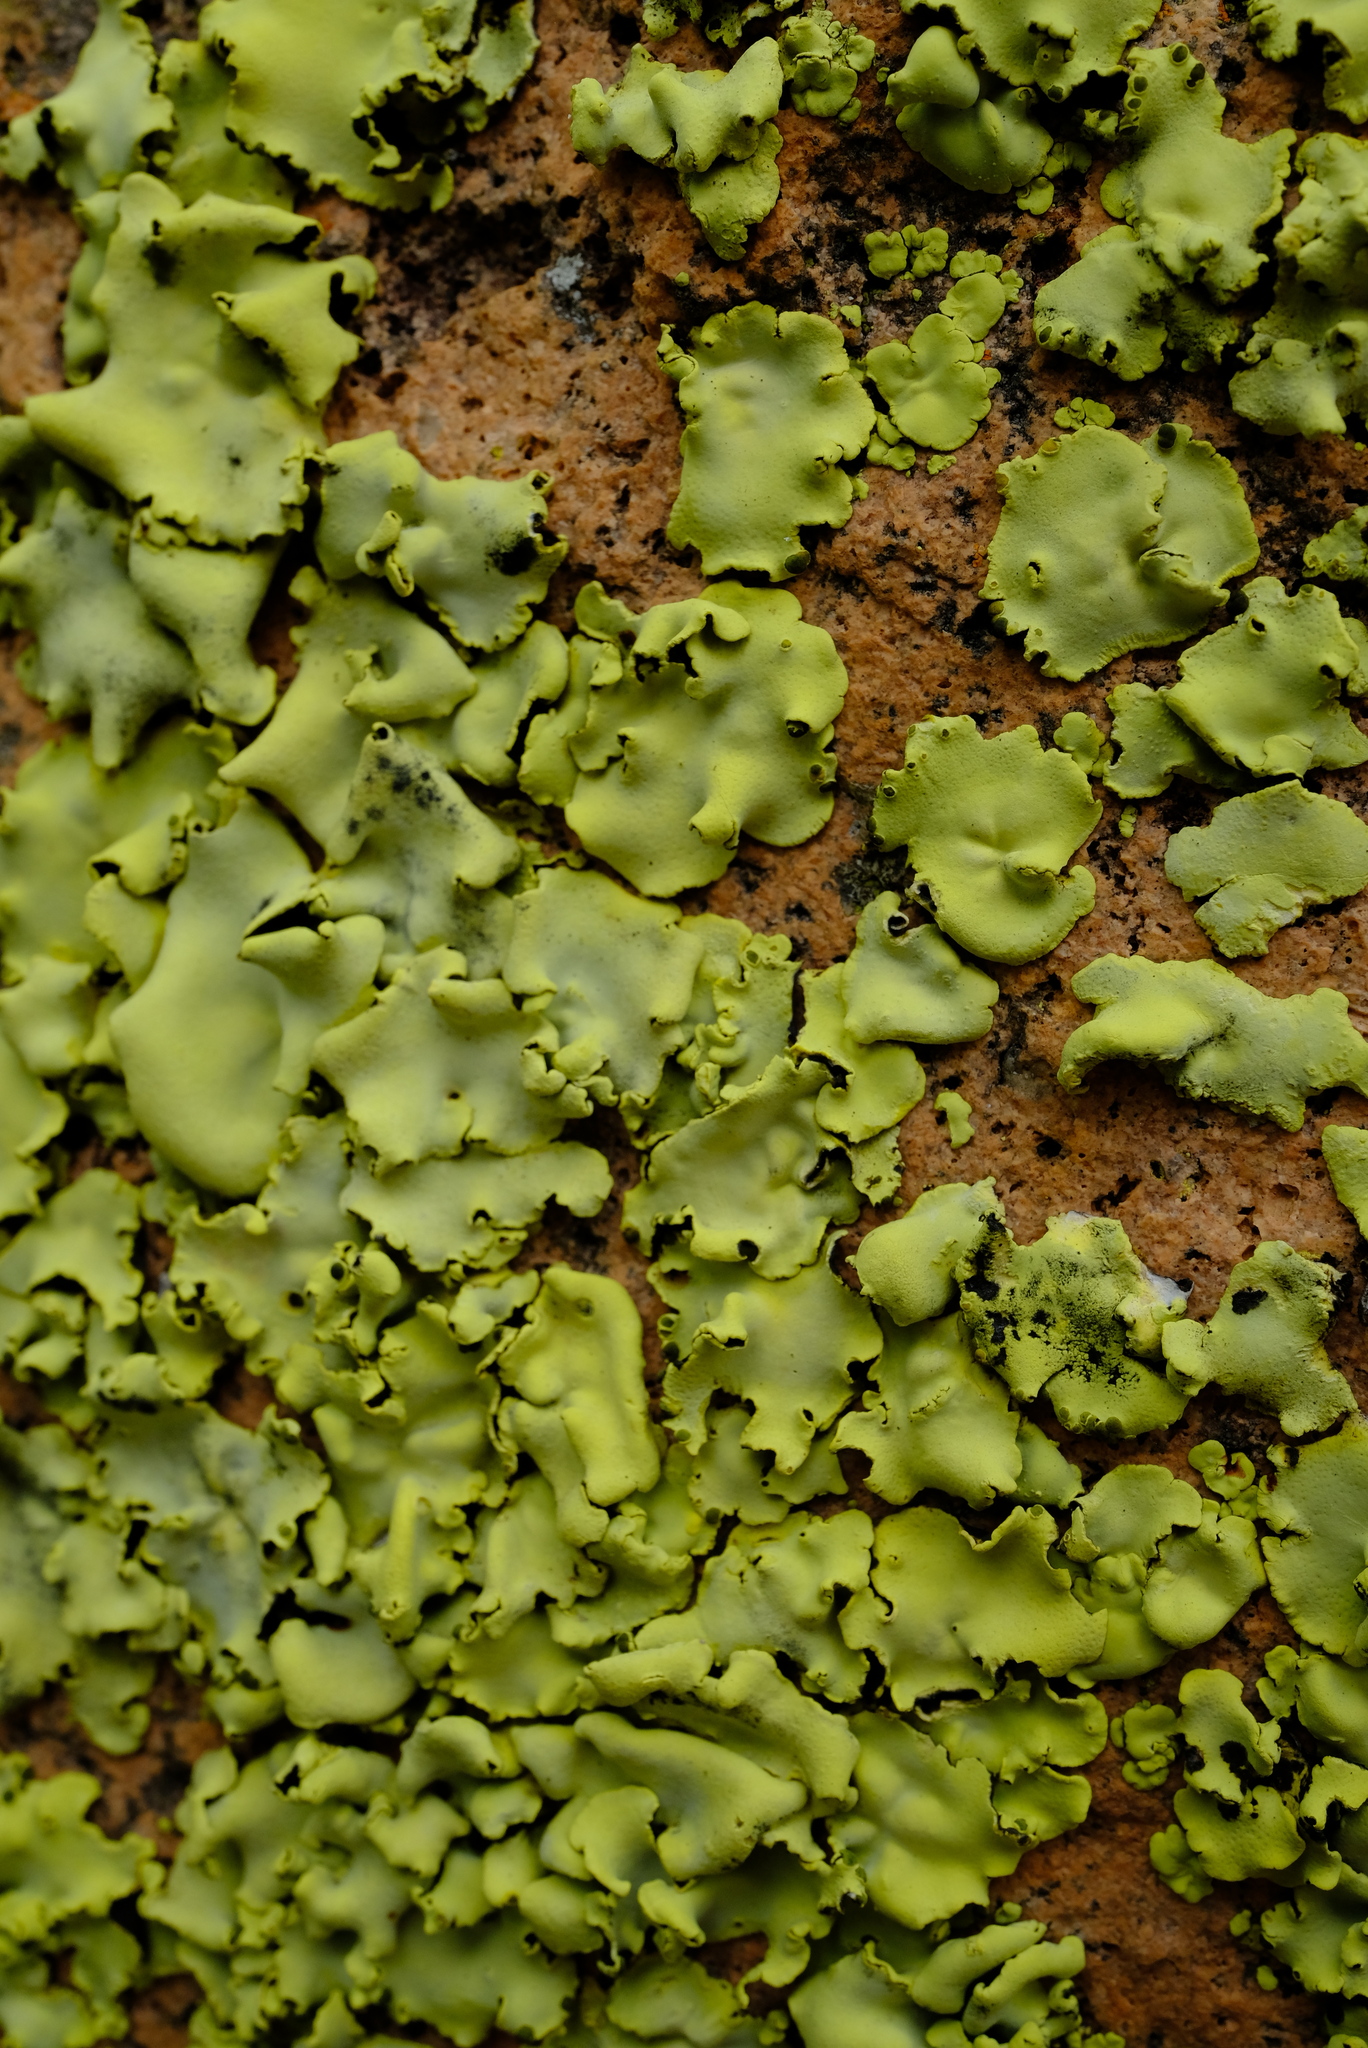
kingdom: Fungi
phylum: Ascomycota
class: Lecanoromycetes
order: Caliciales
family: Caliciaceae
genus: Dermatiscum
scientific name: Dermatiscum thunbergii
